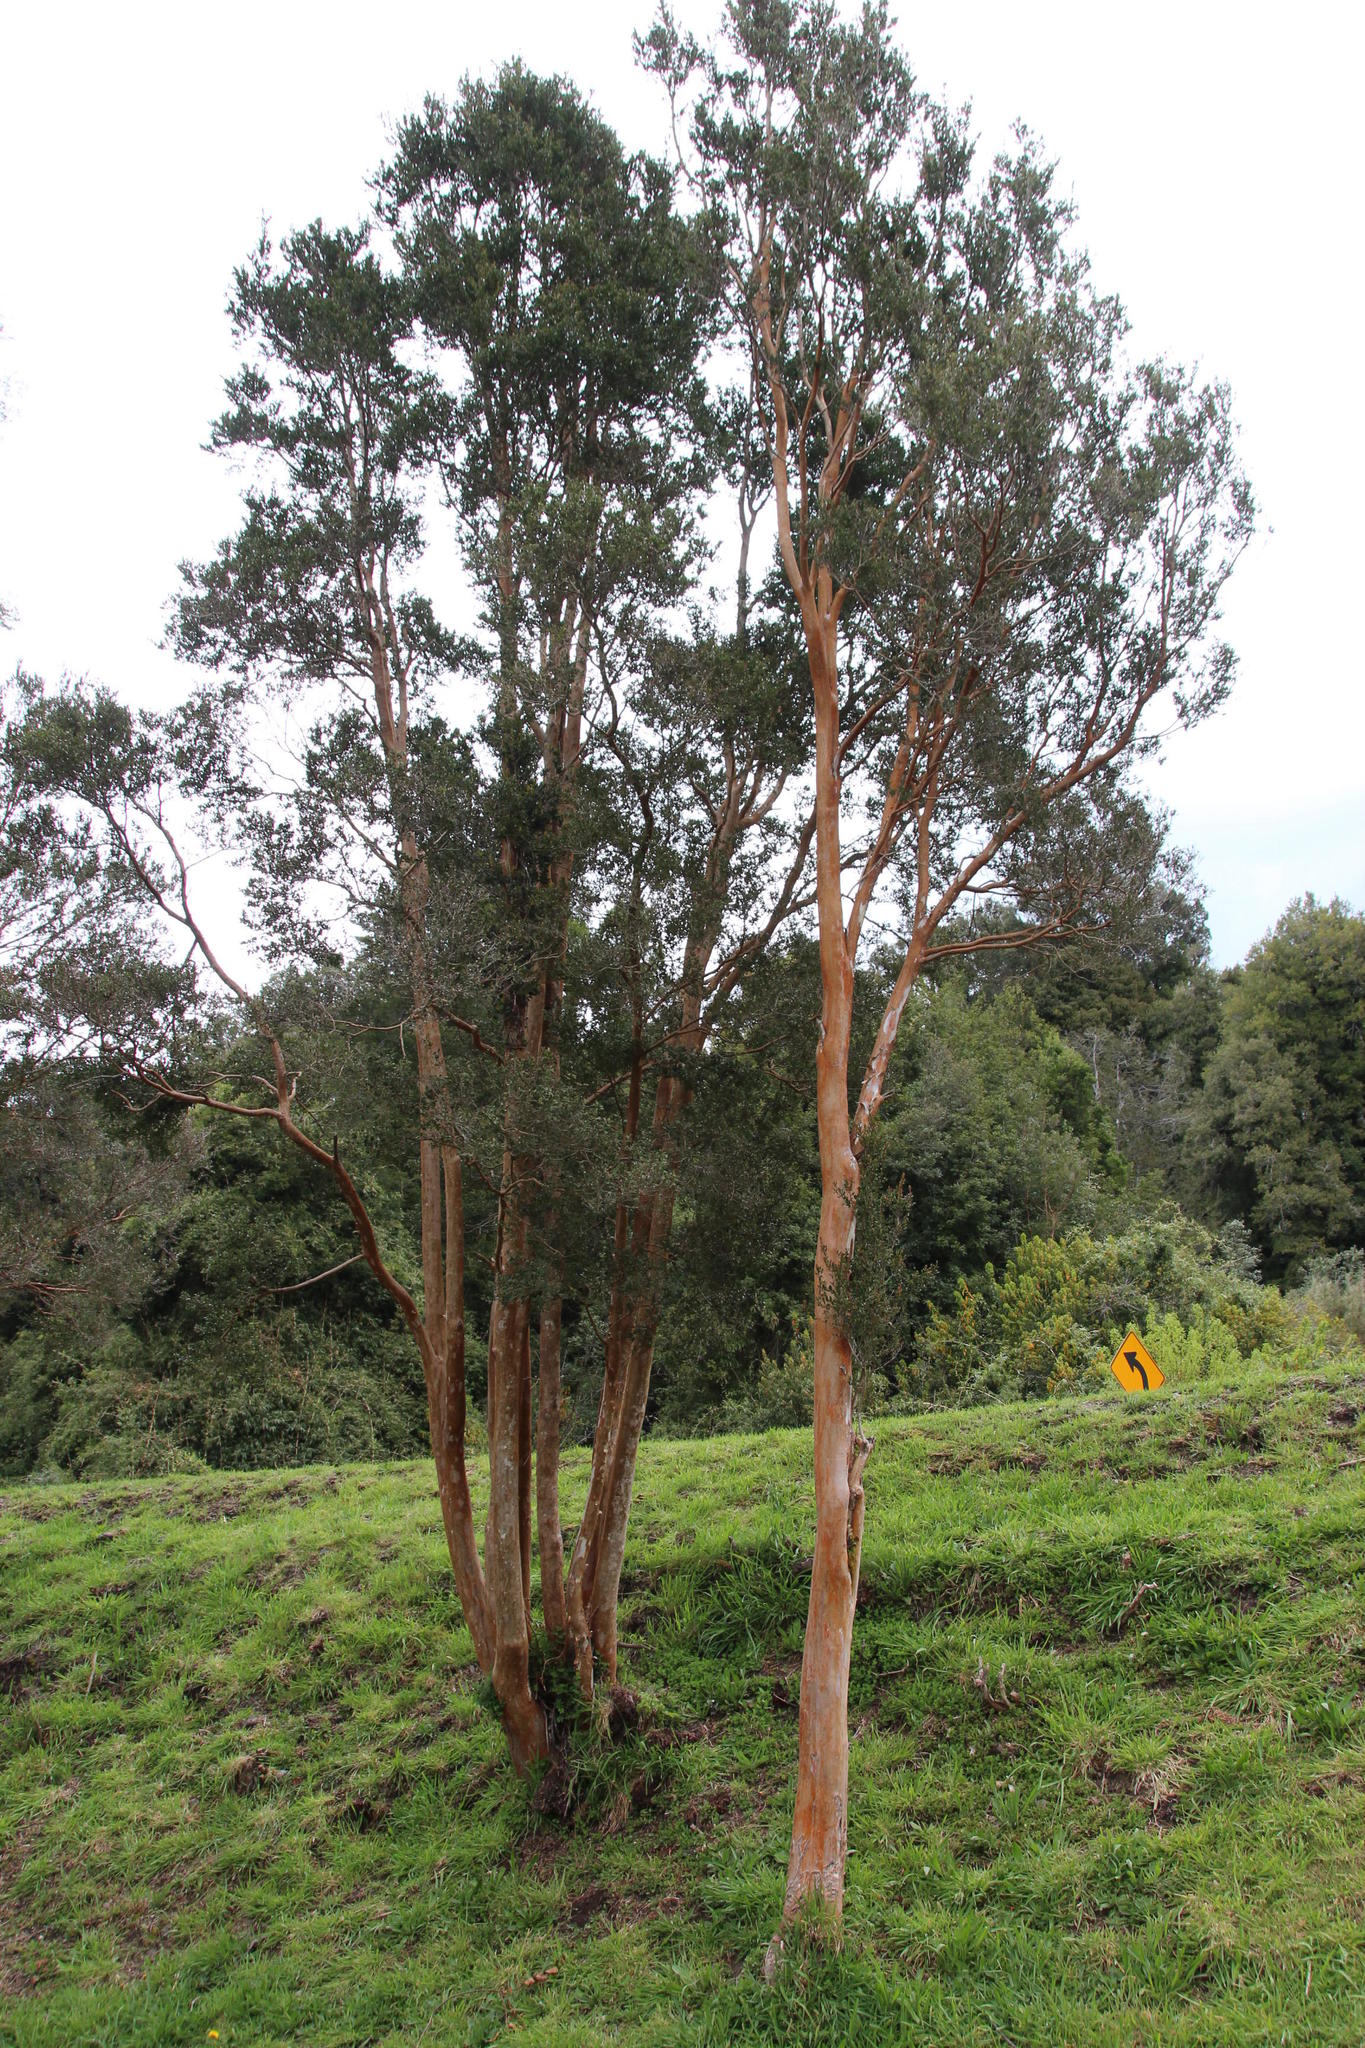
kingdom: Plantae
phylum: Tracheophyta
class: Magnoliopsida
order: Myrtales
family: Myrtaceae
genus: Luma
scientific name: Luma apiculata
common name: Chilean myrtle
